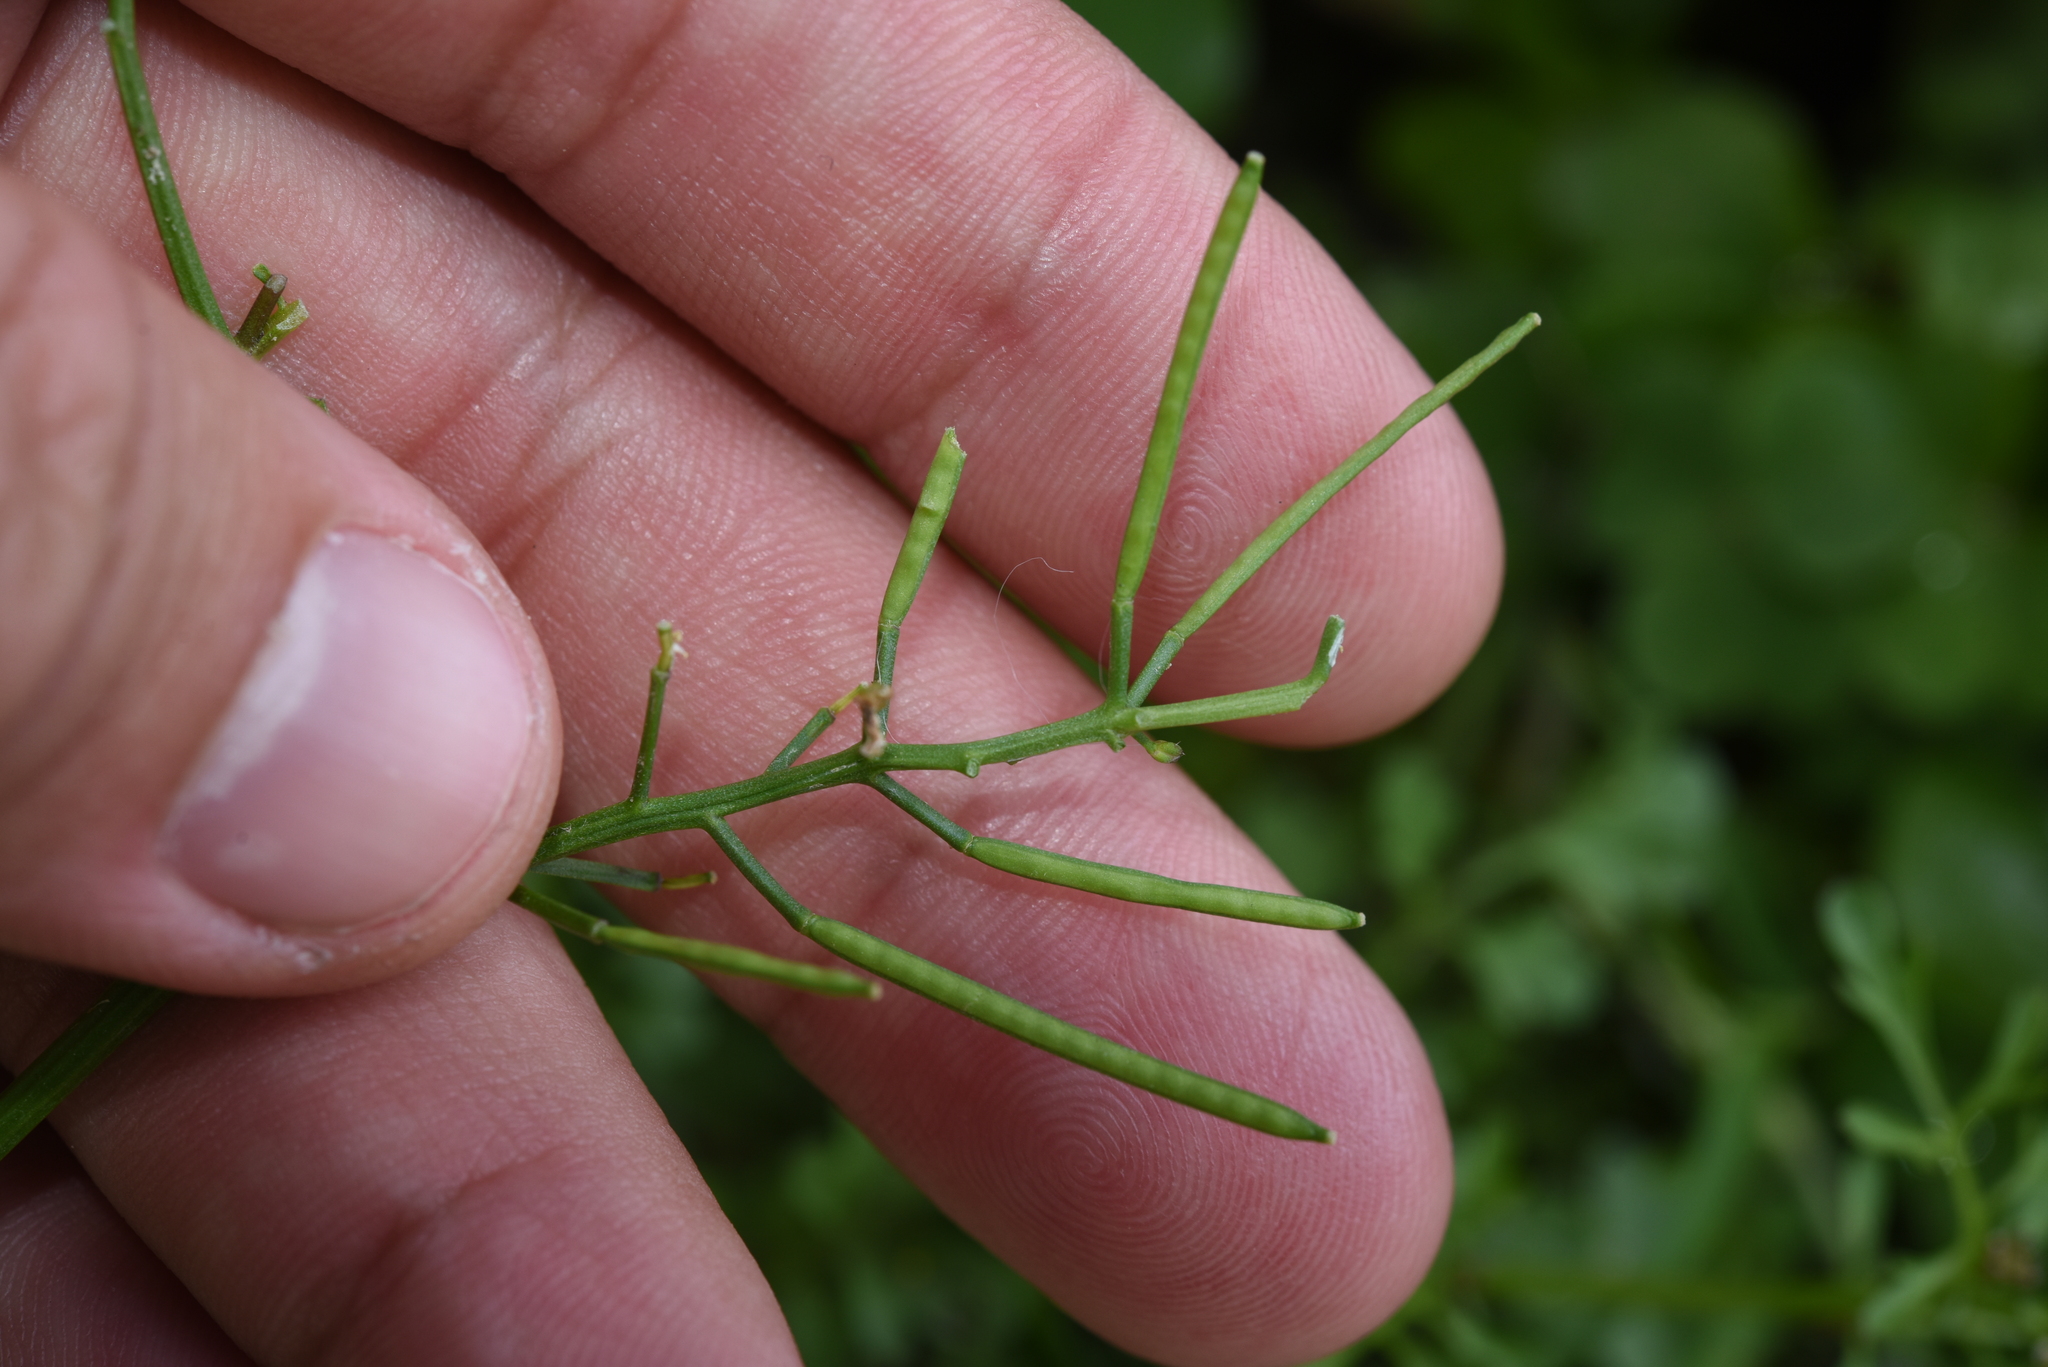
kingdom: Plantae
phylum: Tracheophyta
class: Magnoliopsida
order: Brassicales
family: Brassicaceae
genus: Cardamine
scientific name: Cardamine flexuosa
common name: Woodland bittercress
